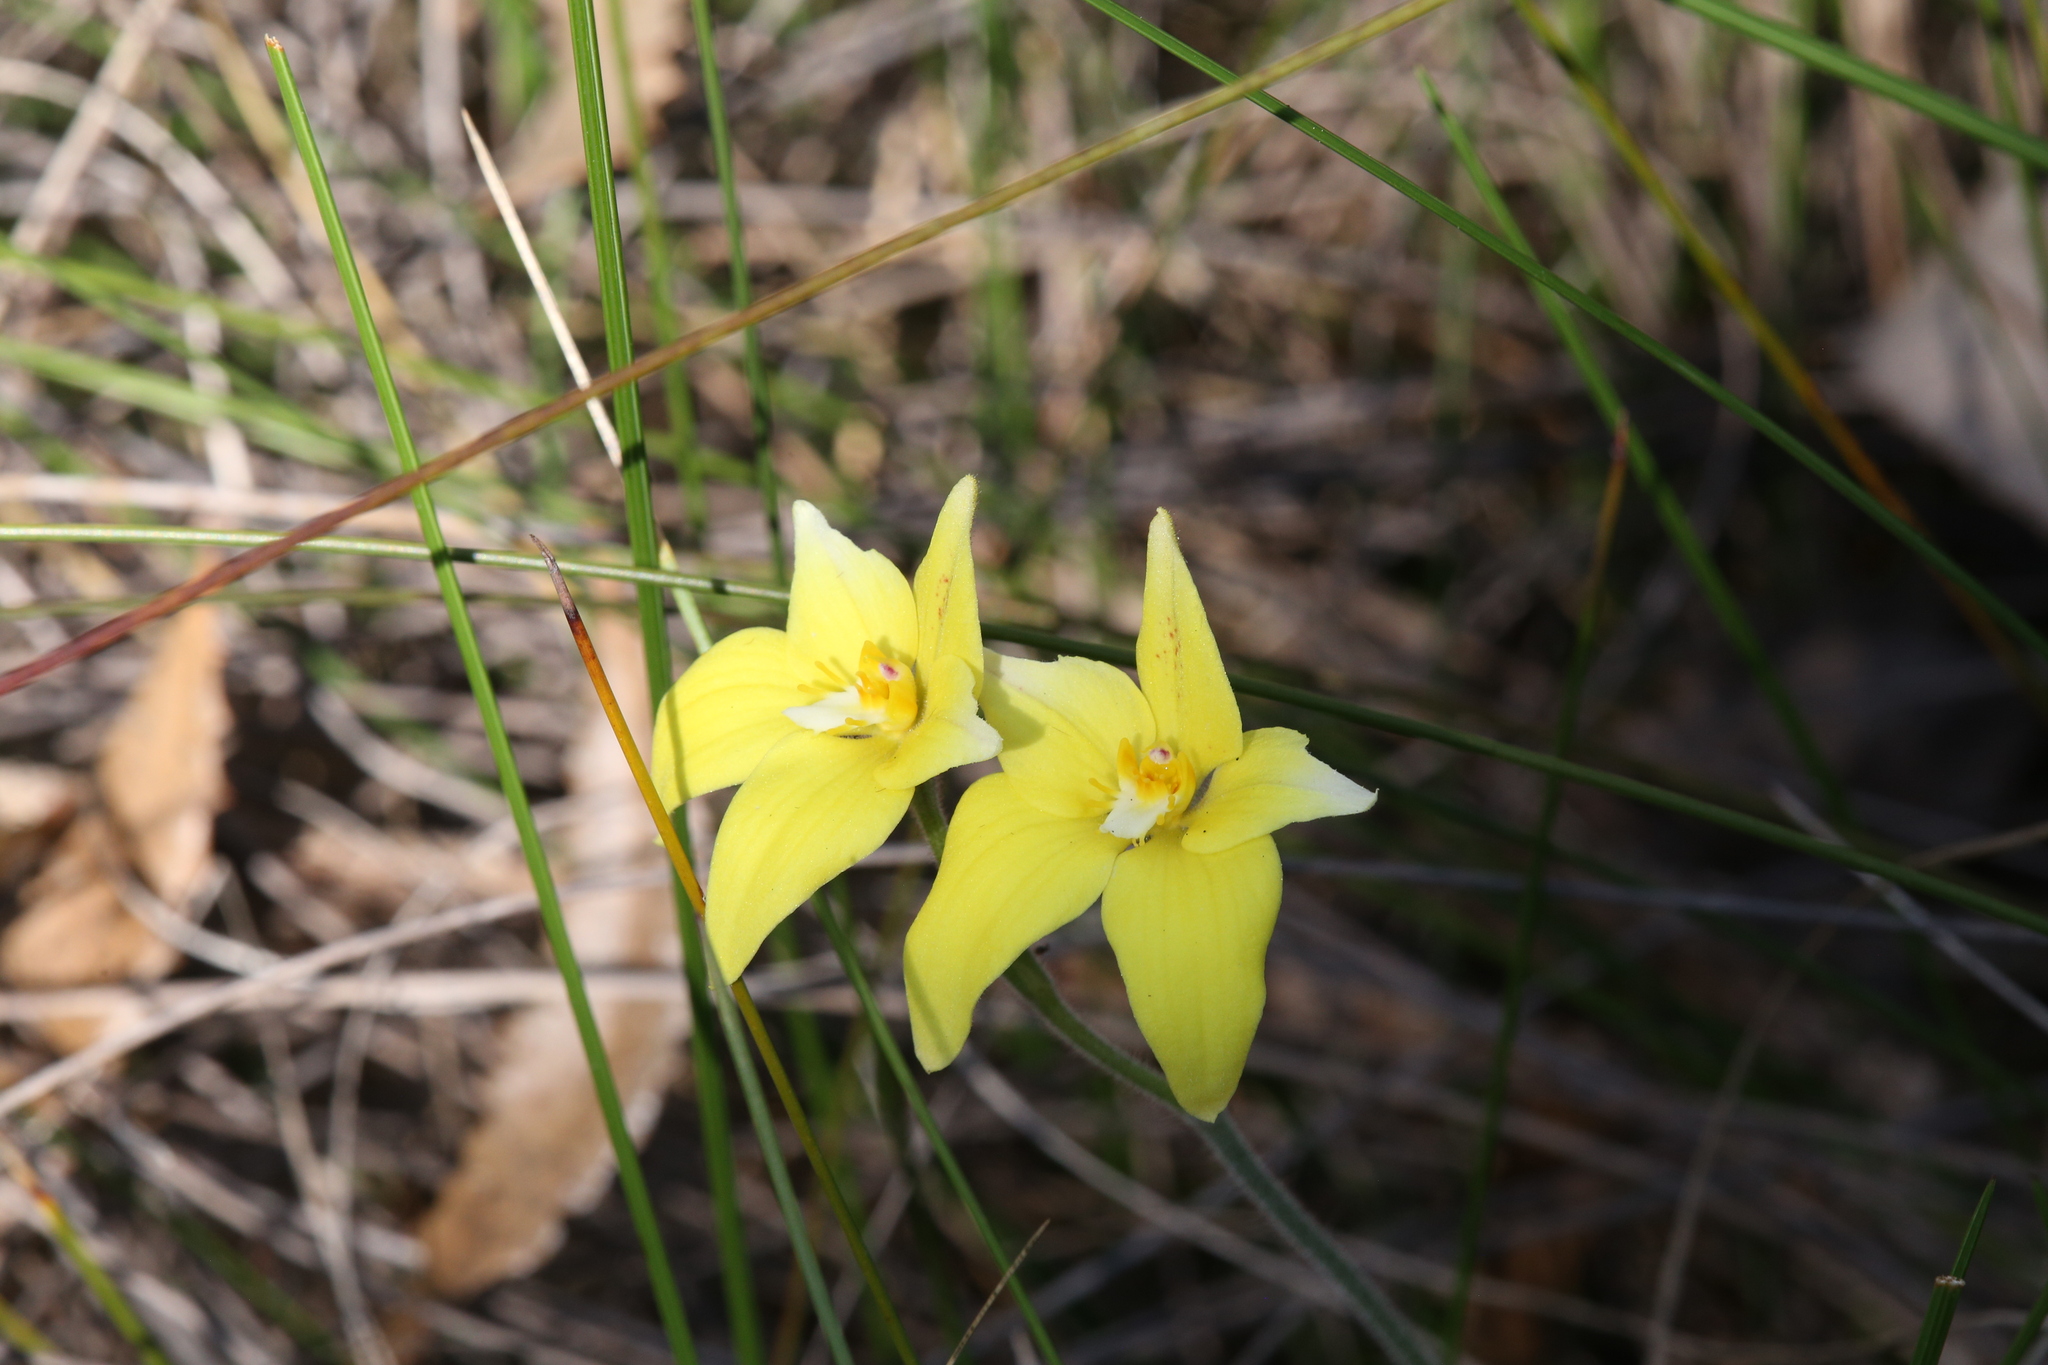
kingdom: Plantae
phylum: Tracheophyta
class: Liliopsida
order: Asparagales
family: Orchidaceae
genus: Caladenia
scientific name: Caladenia flava
